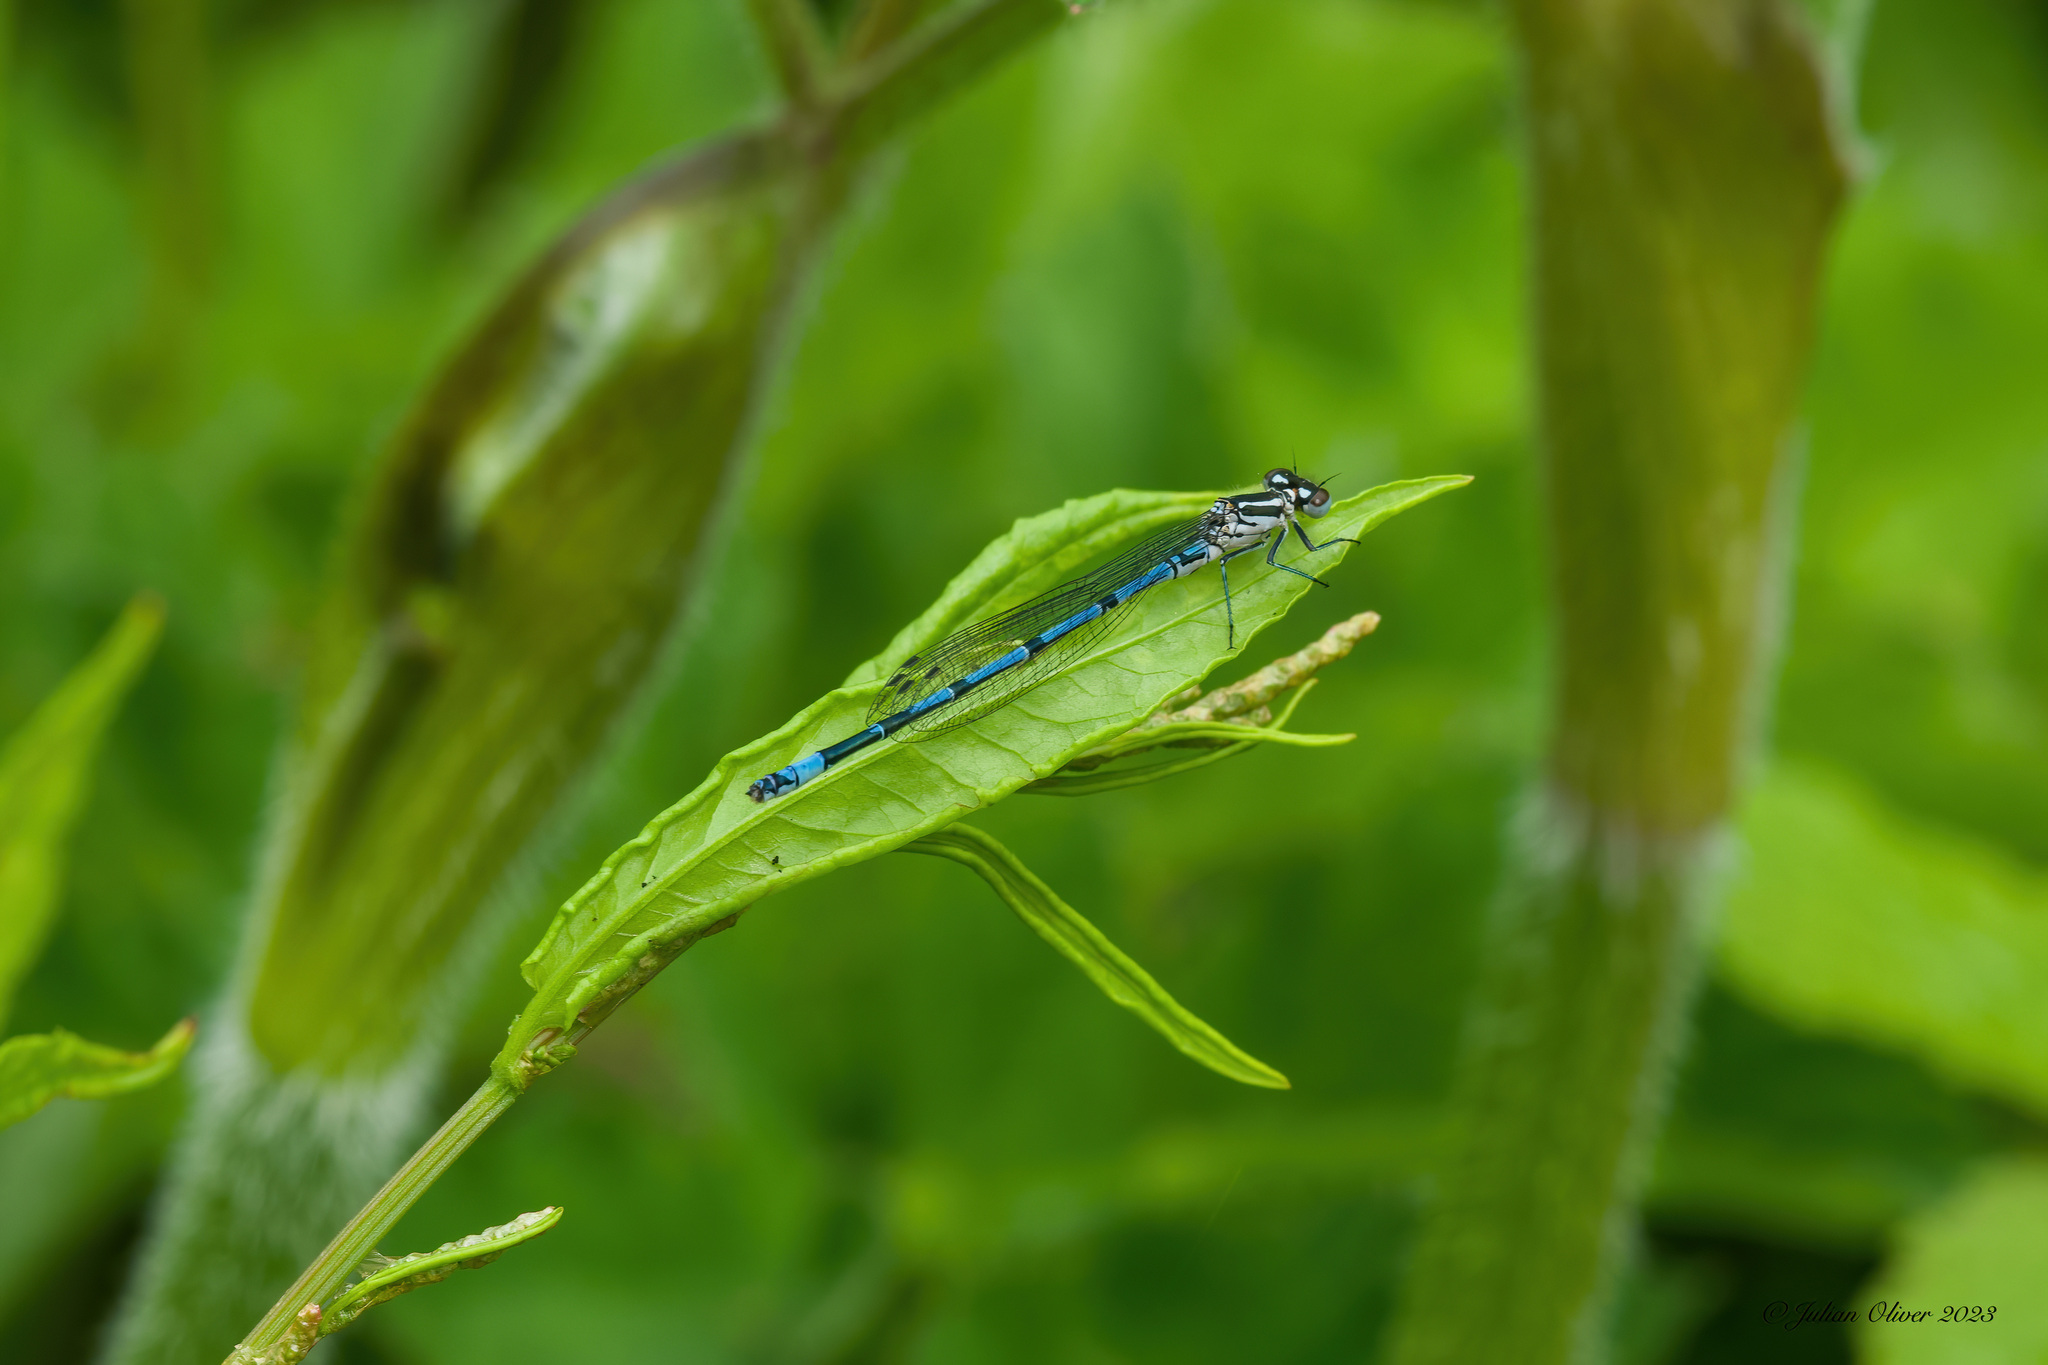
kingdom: Animalia
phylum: Arthropoda
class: Insecta
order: Odonata
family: Coenagrionidae
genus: Coenagrion
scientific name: Coenagrion puella
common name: Azure damselfly
